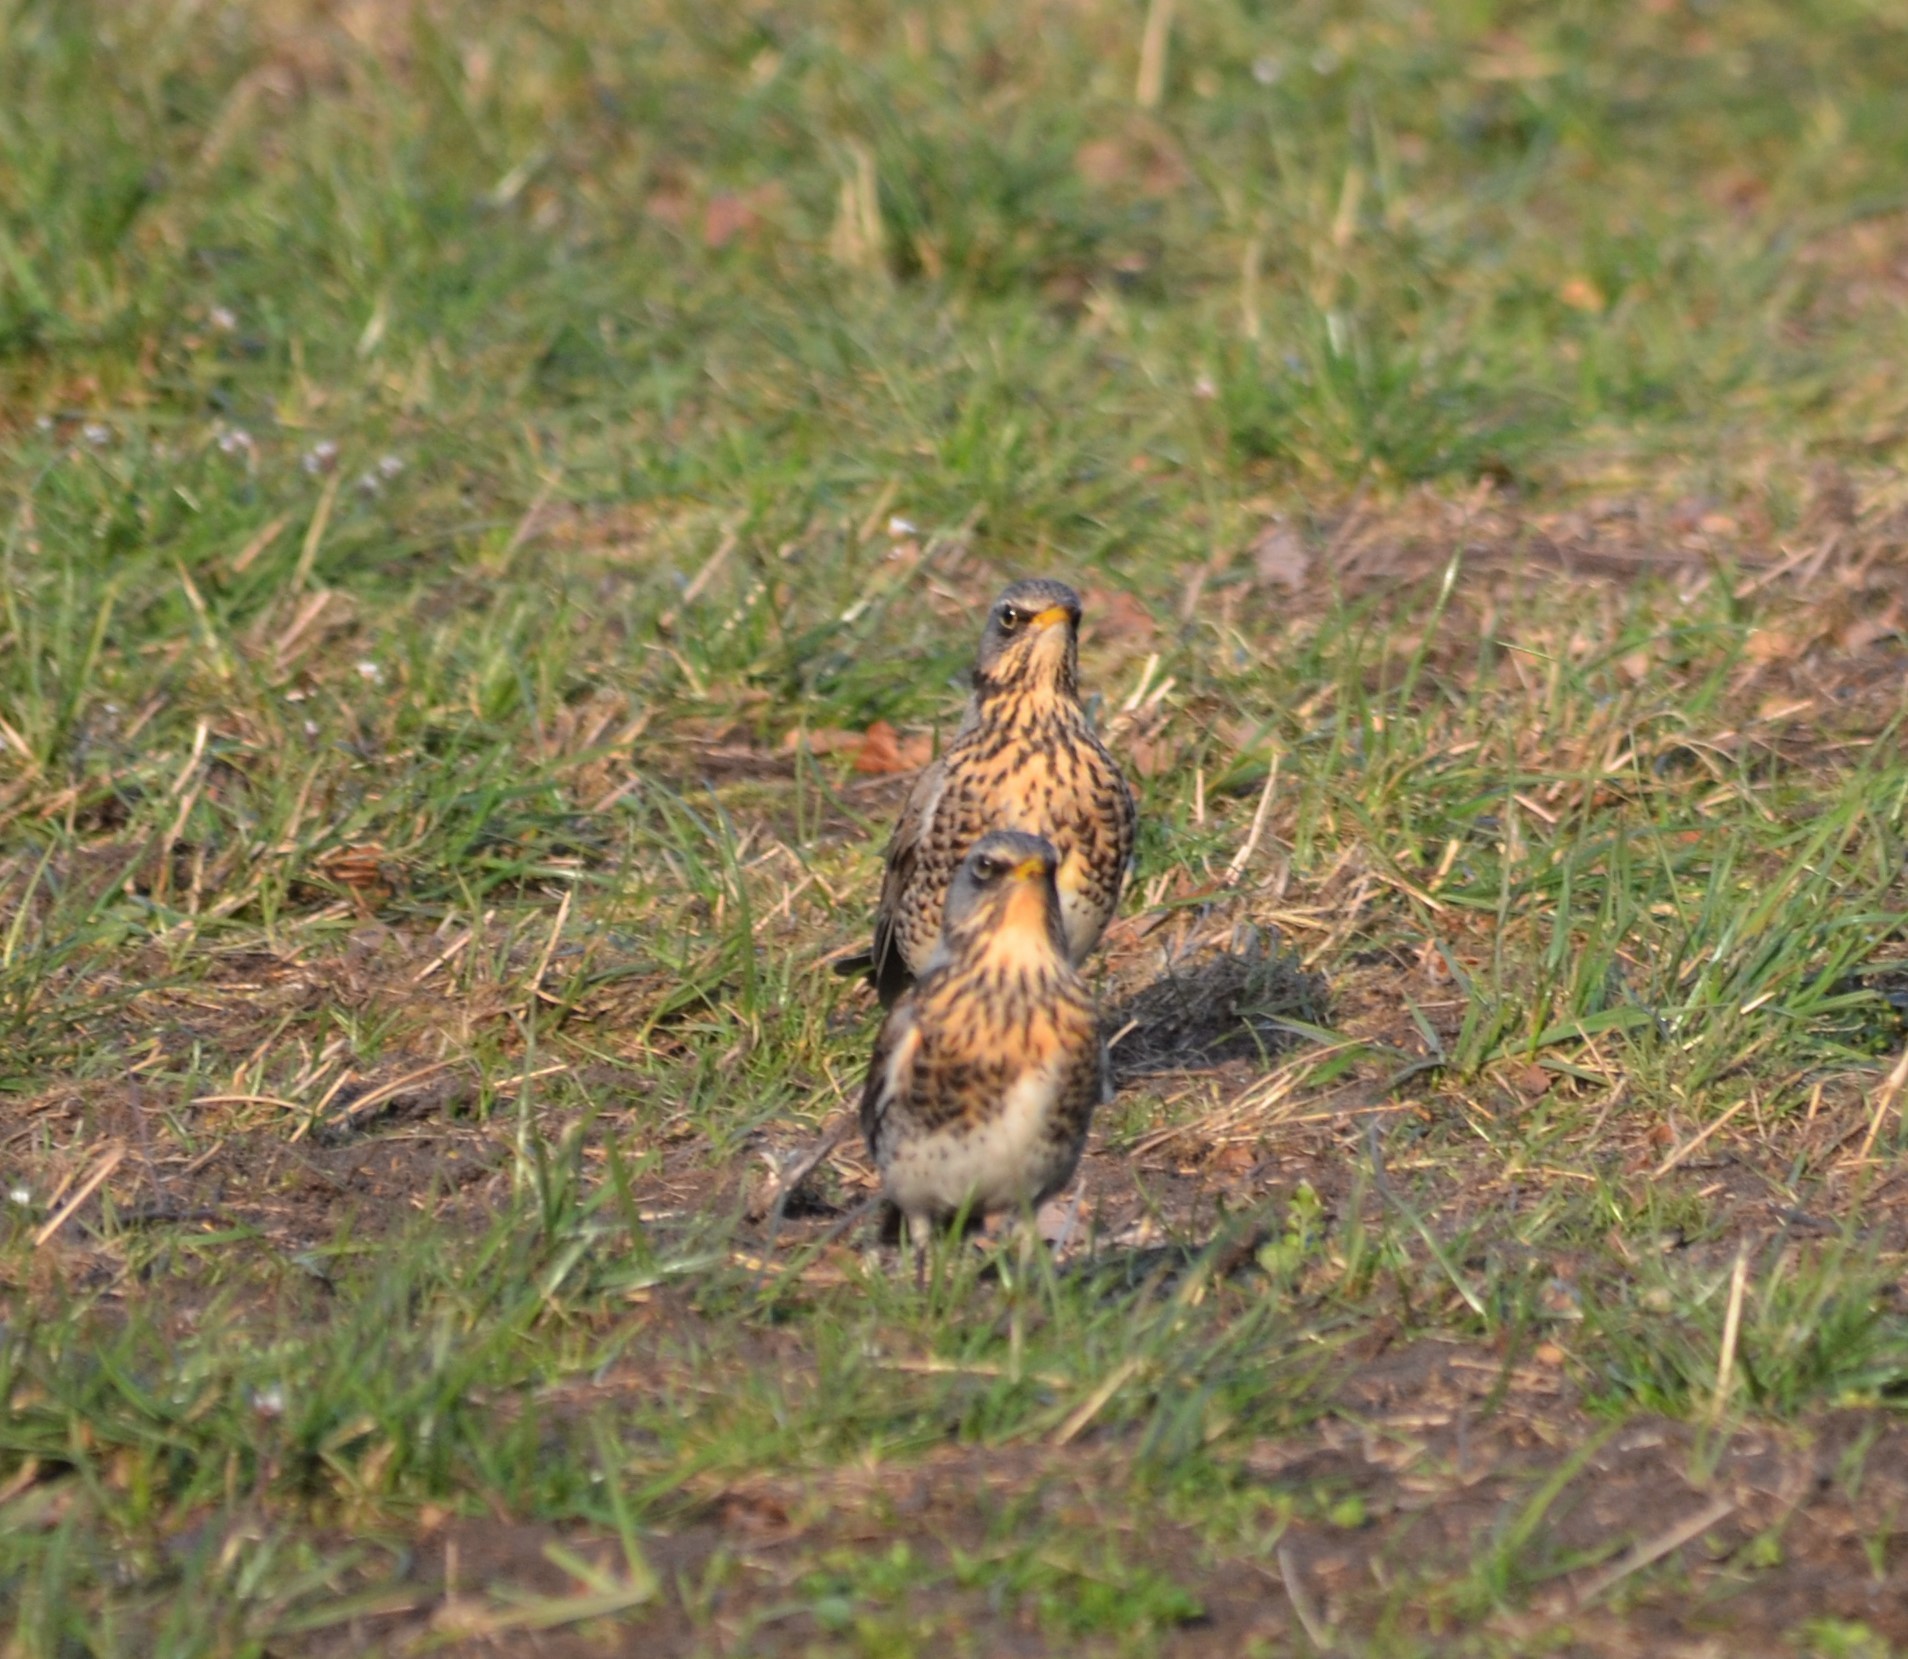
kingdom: Animalia
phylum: Chordata
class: Aves
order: Passeriformes
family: Turdidae
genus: Turdus
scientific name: Turdus pilaris
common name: Fieldfare
